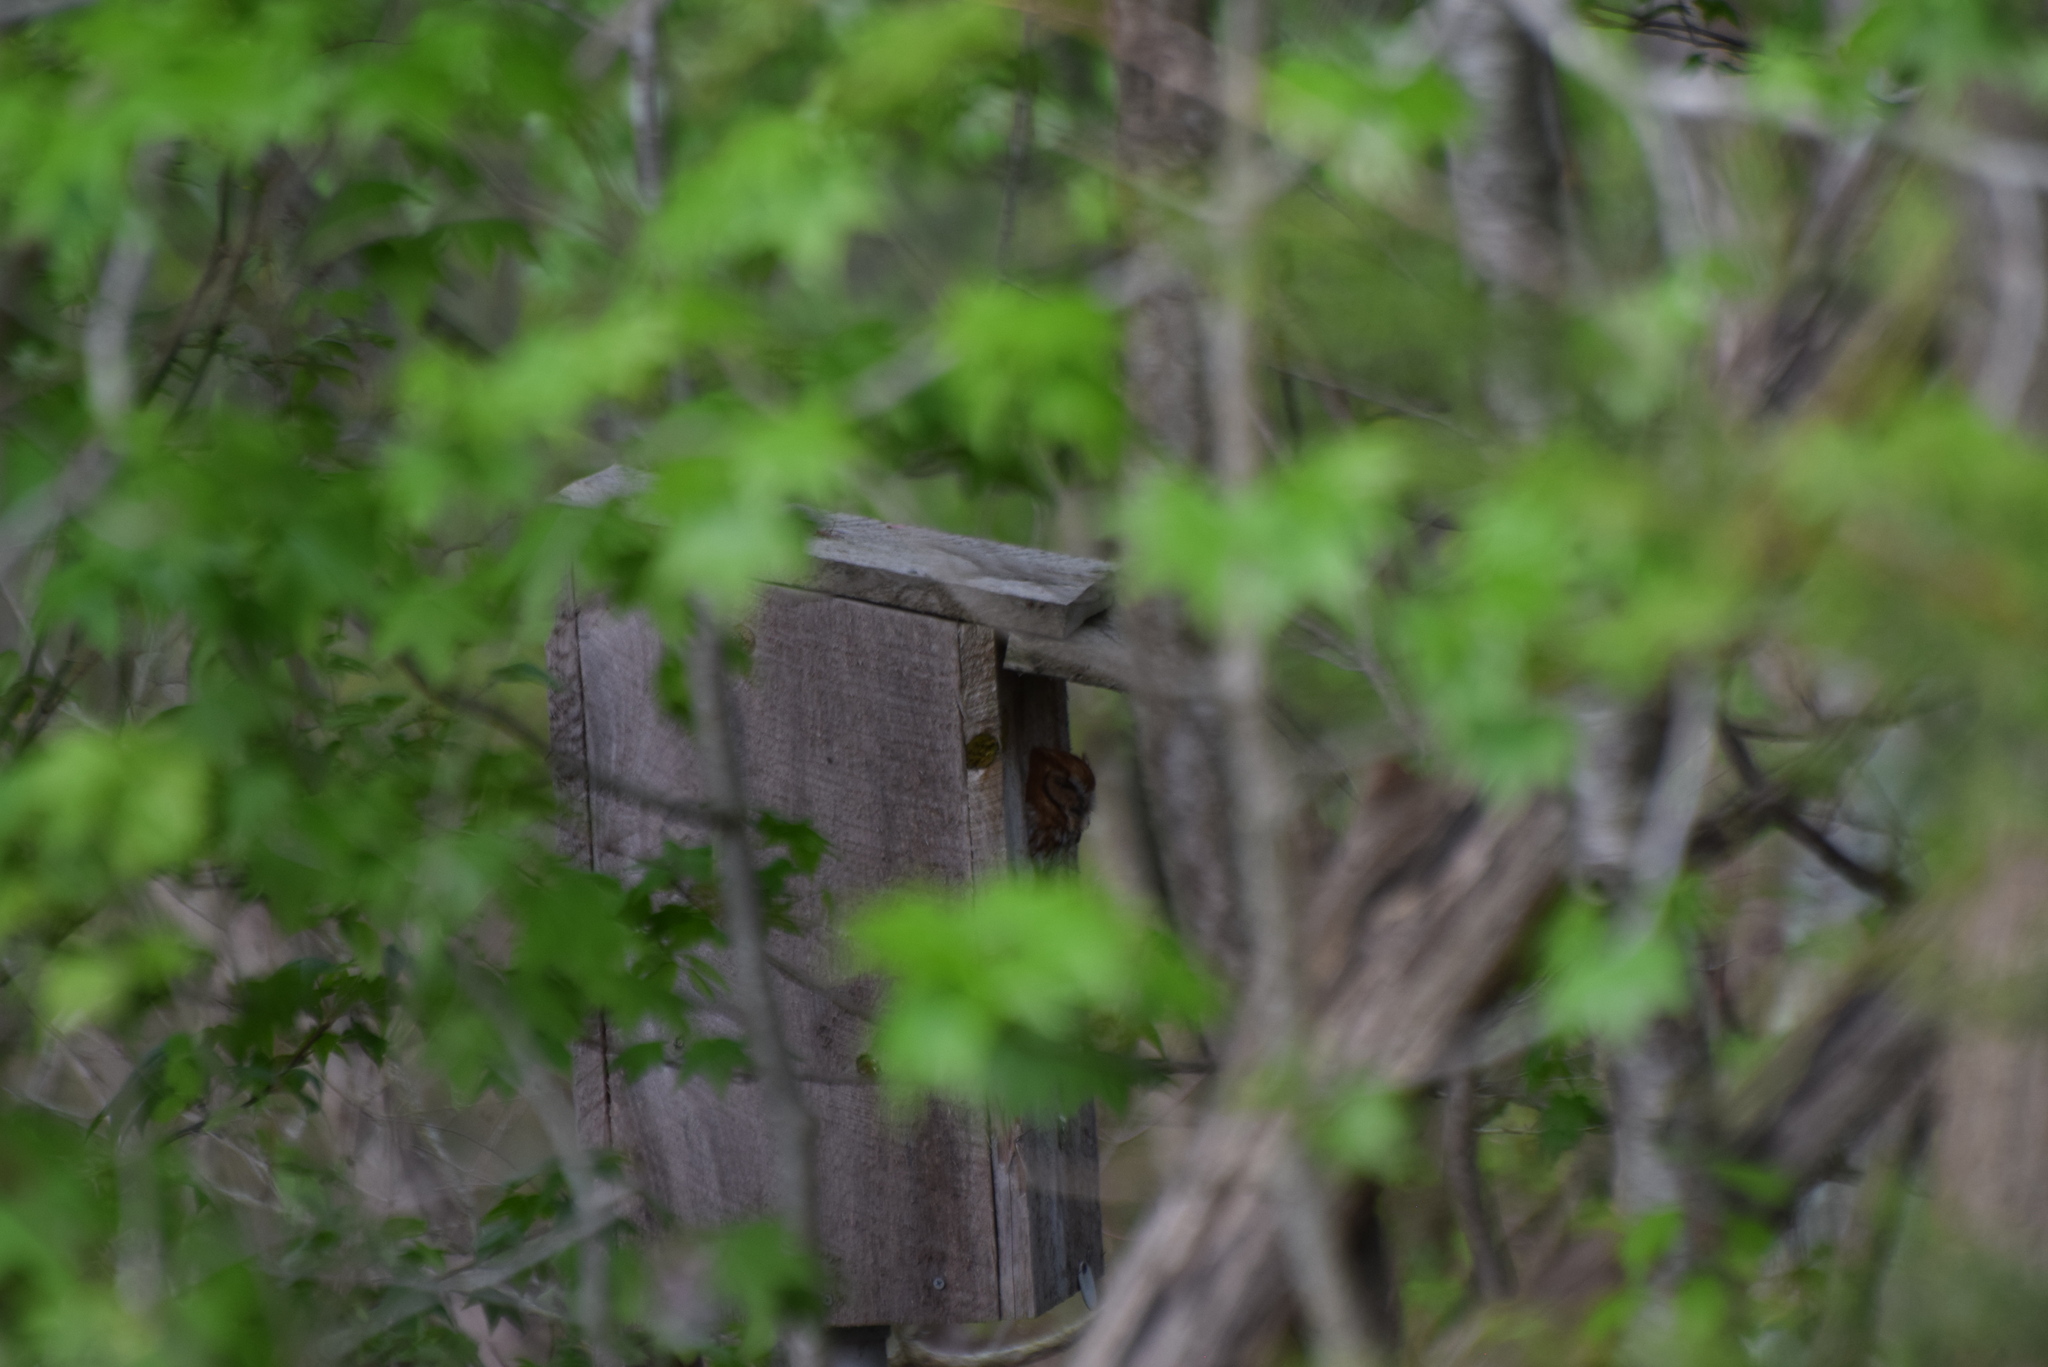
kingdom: Animalia
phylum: Chordata
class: Aves
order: Strigiformes
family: Strigidae
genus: Megascops
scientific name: Megascops asio
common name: Eastern screech-owl
